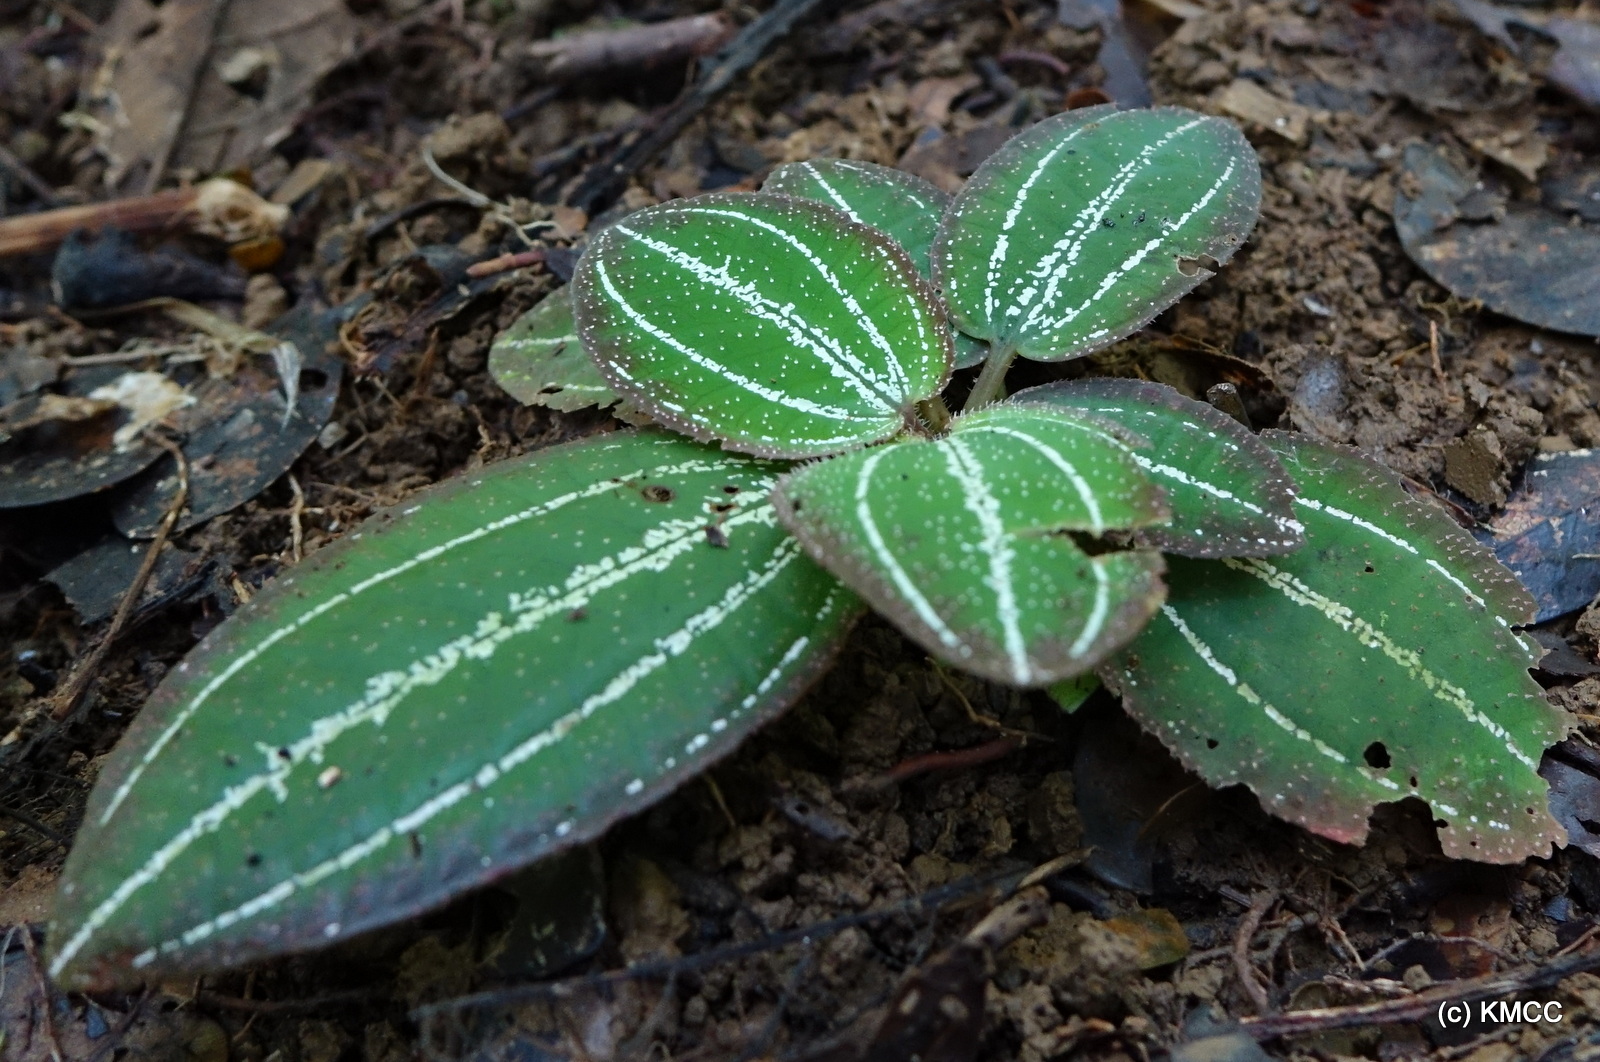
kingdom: Plantae
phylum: Tracheophyta
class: Magnoliopsida
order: Myrtales
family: Melastomataceae
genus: Gravesia
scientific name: Gravesia albinervia
